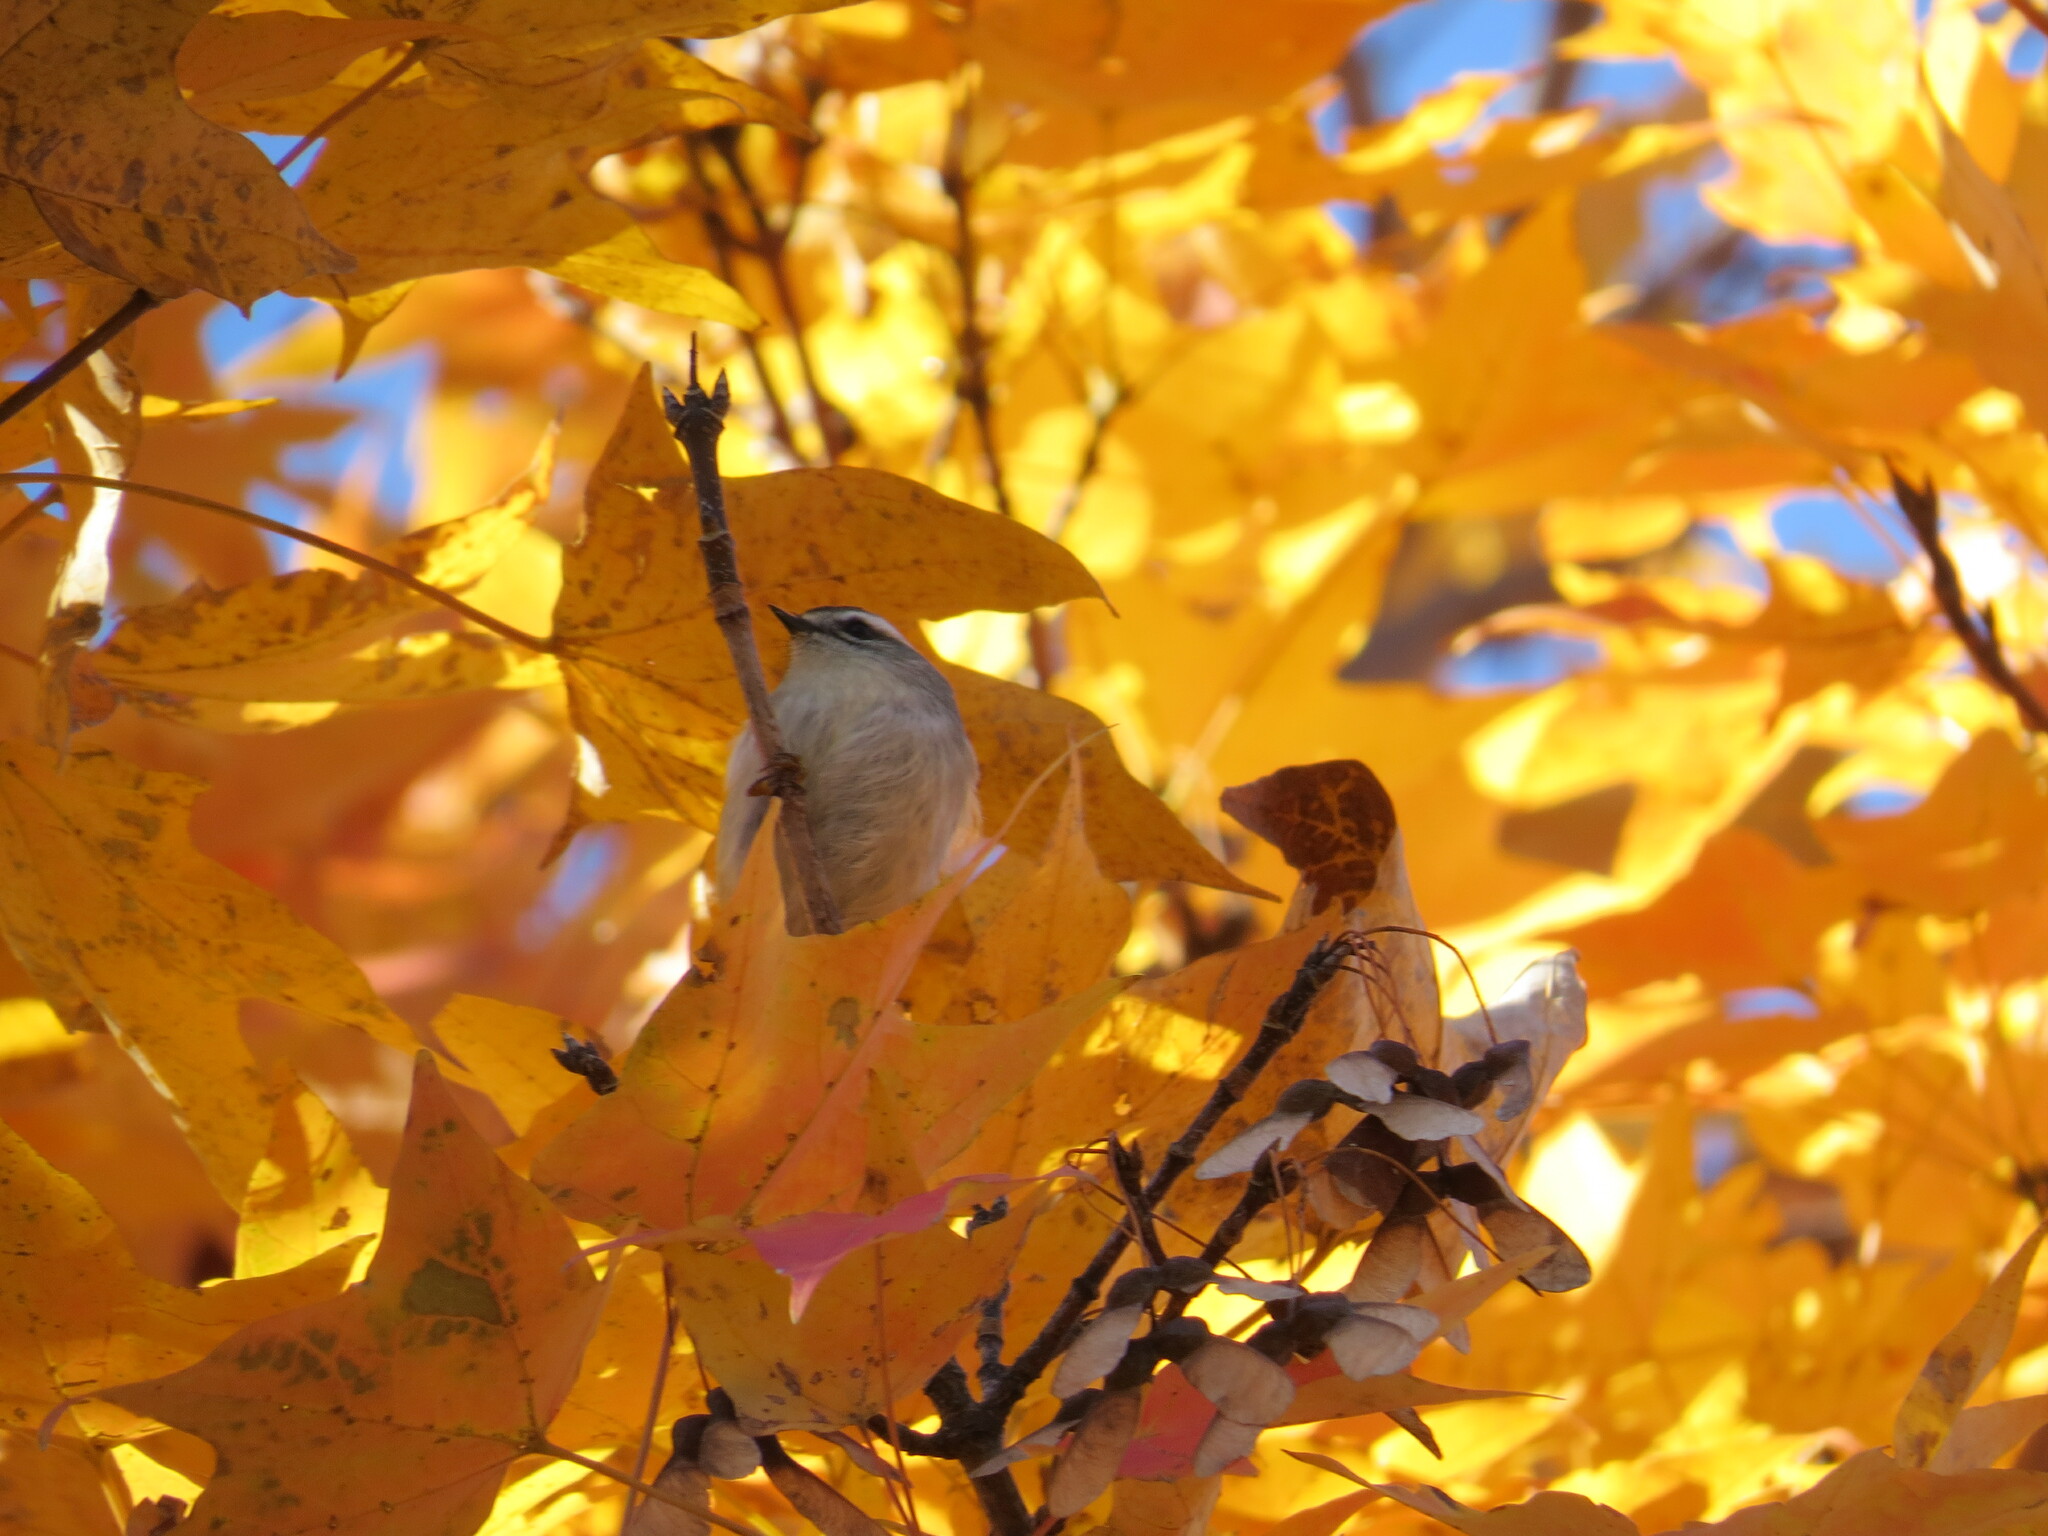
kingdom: Animalia
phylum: Chordata
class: Aves
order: Passeriformes
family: Regulidae
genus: Regulus
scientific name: Regulus satrapa
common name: Golden-crowned kinglet
